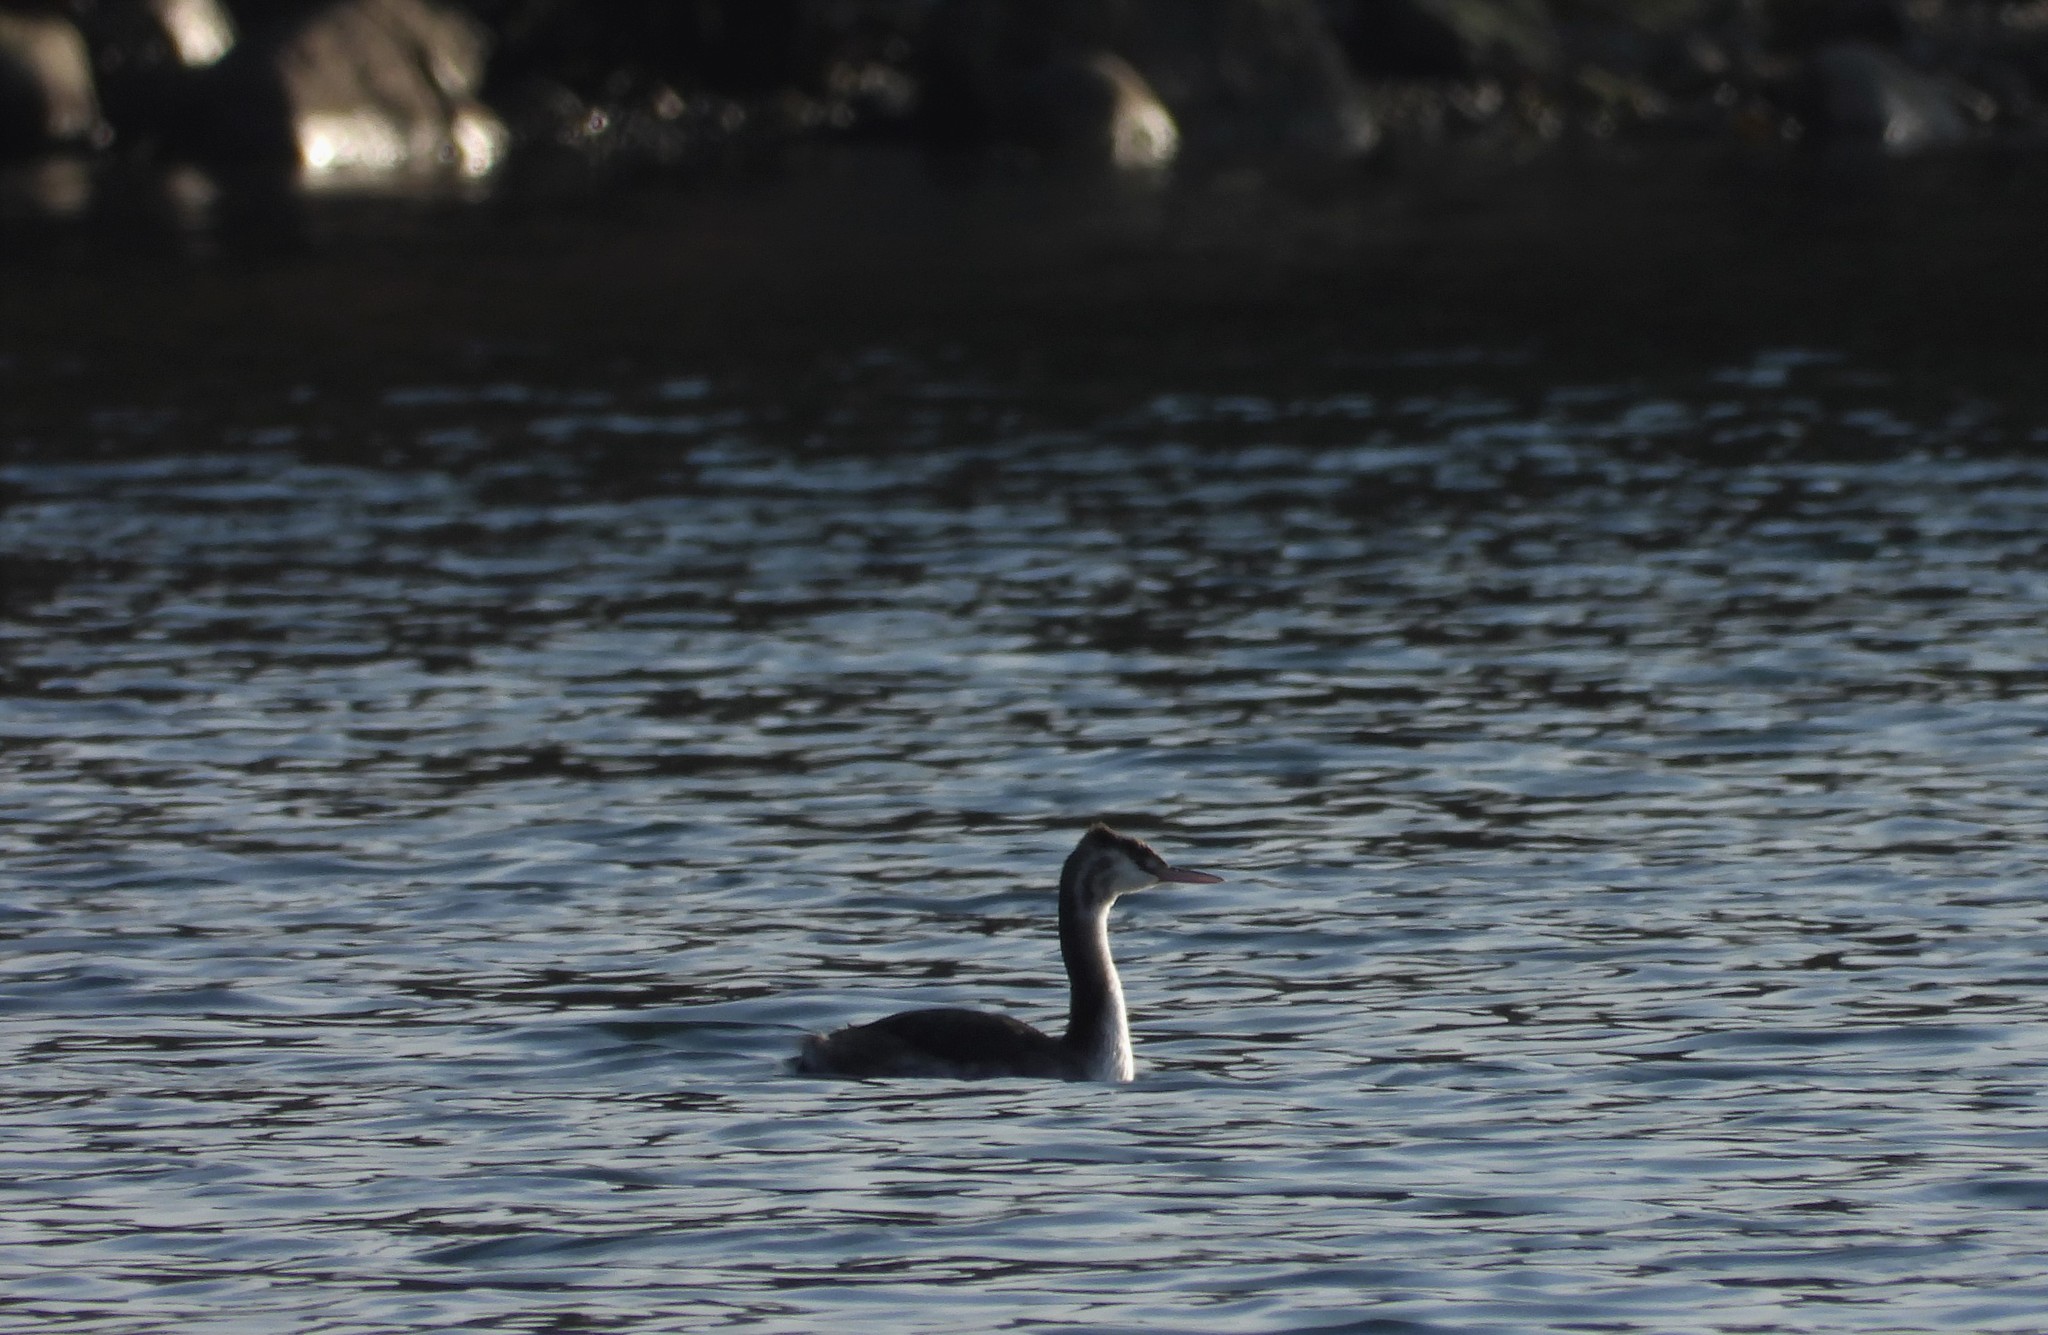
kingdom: Animalia
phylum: Chordata
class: Aves
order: Podicipediformes
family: Podicipedidae
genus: Podiceps
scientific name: Podiceps cristatus
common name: Great crested grebe
